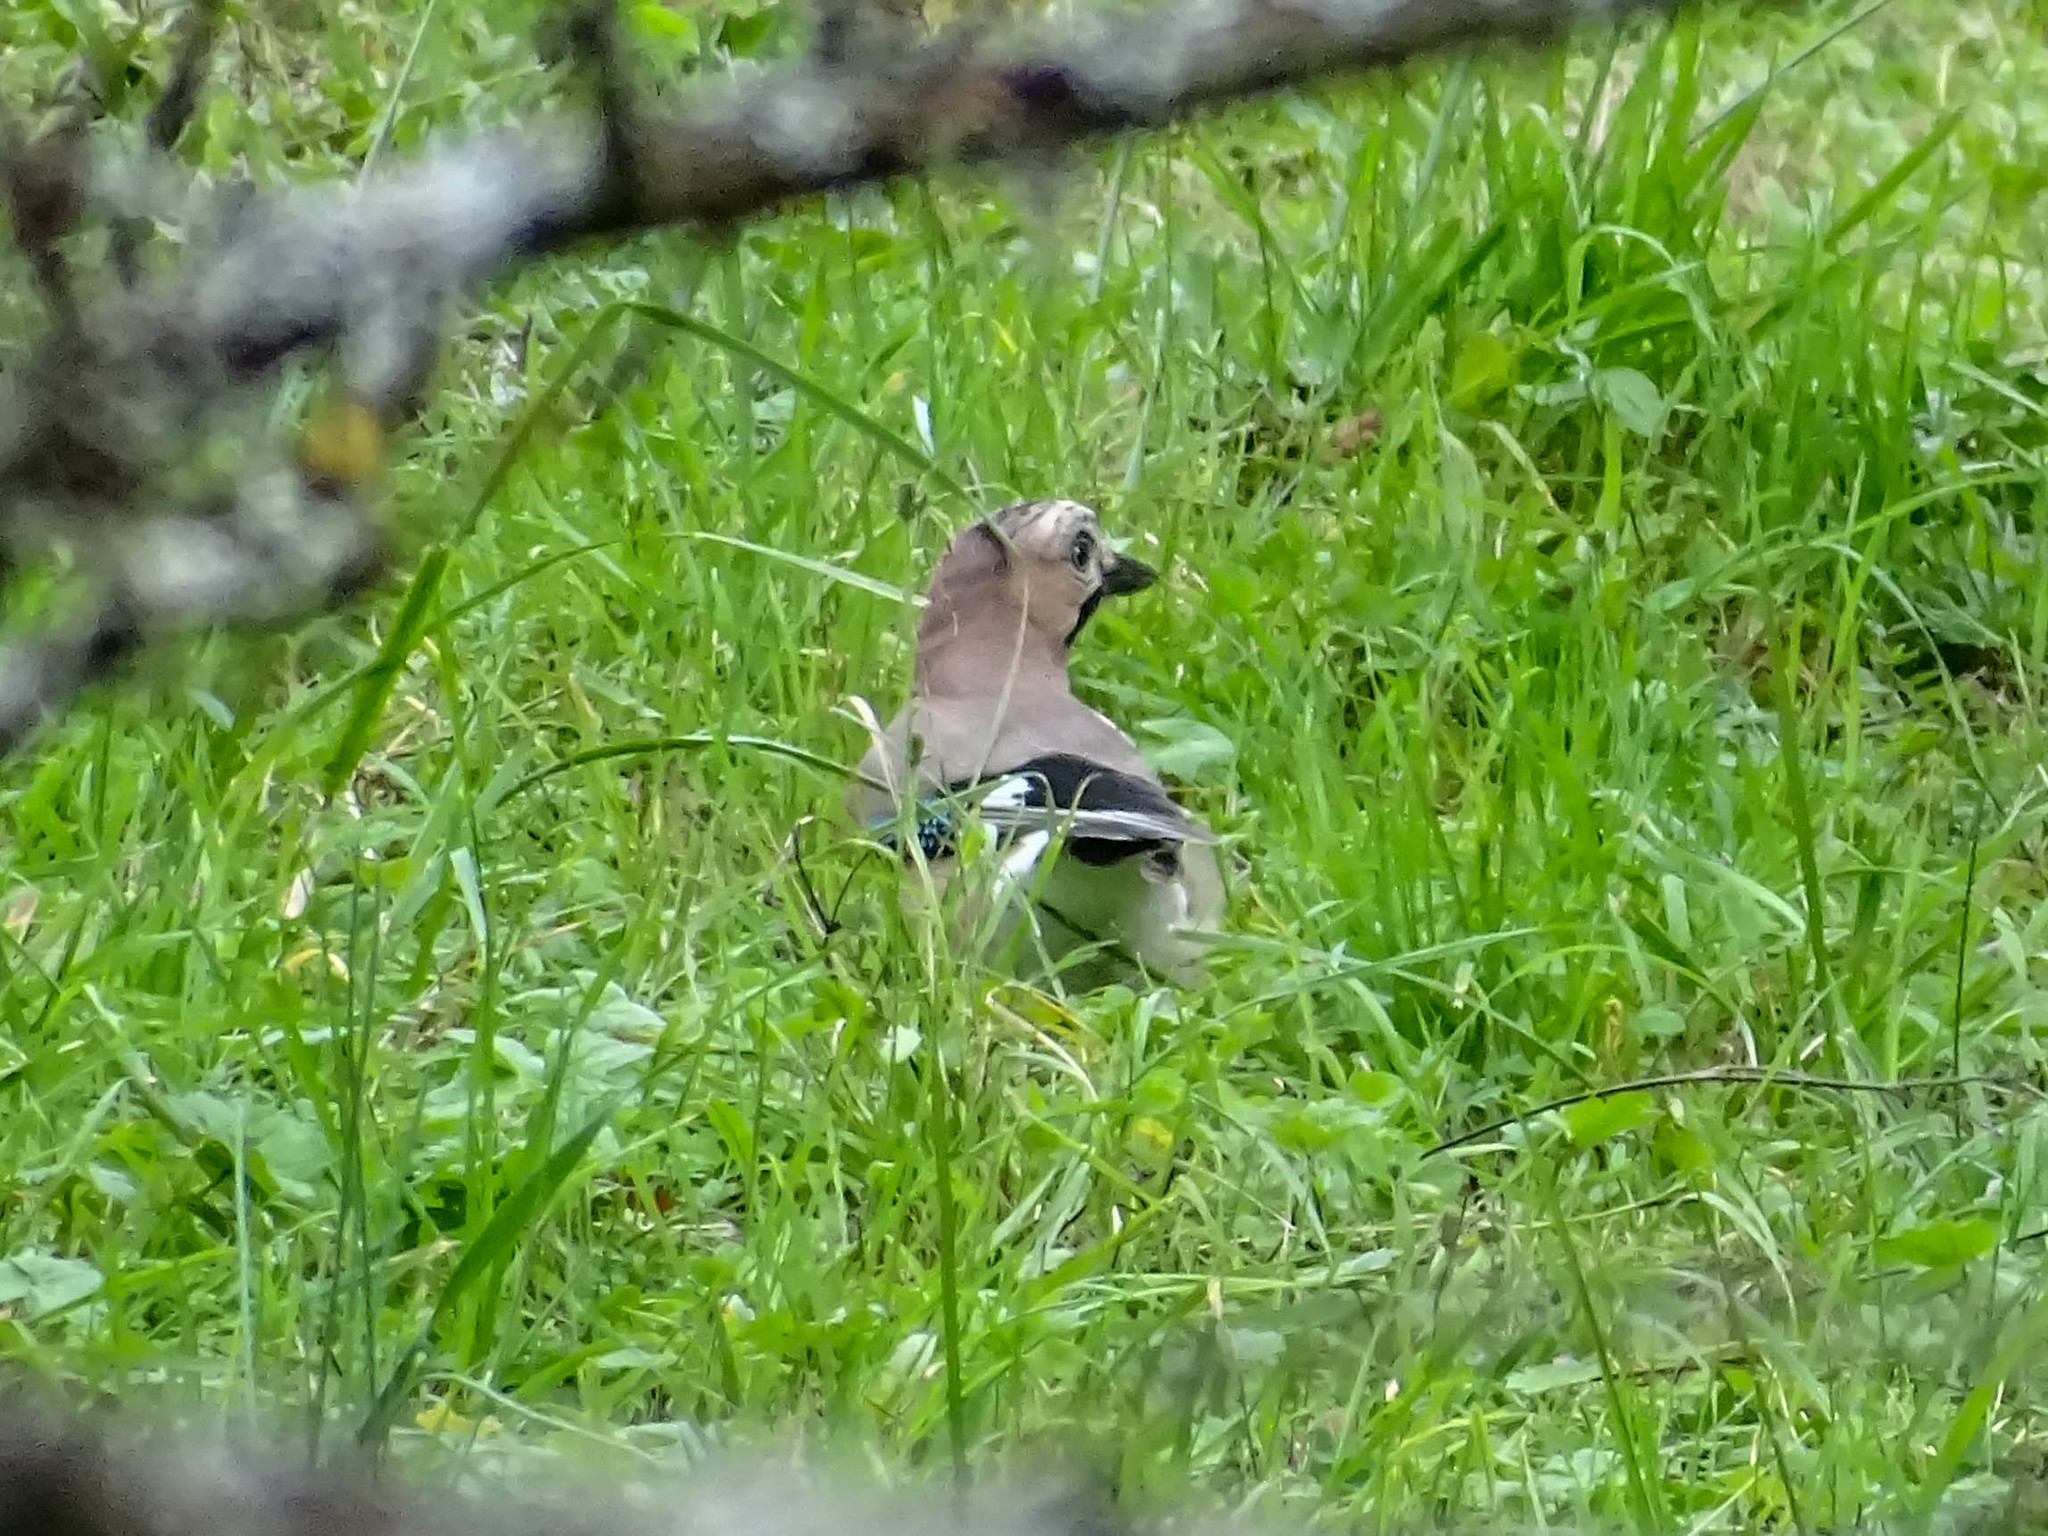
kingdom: Animalia
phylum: Chordata
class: Aves
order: Passeriformes
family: Corvidae
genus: Garrulus
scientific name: Garrulus glandarius
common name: Eurasian jay
